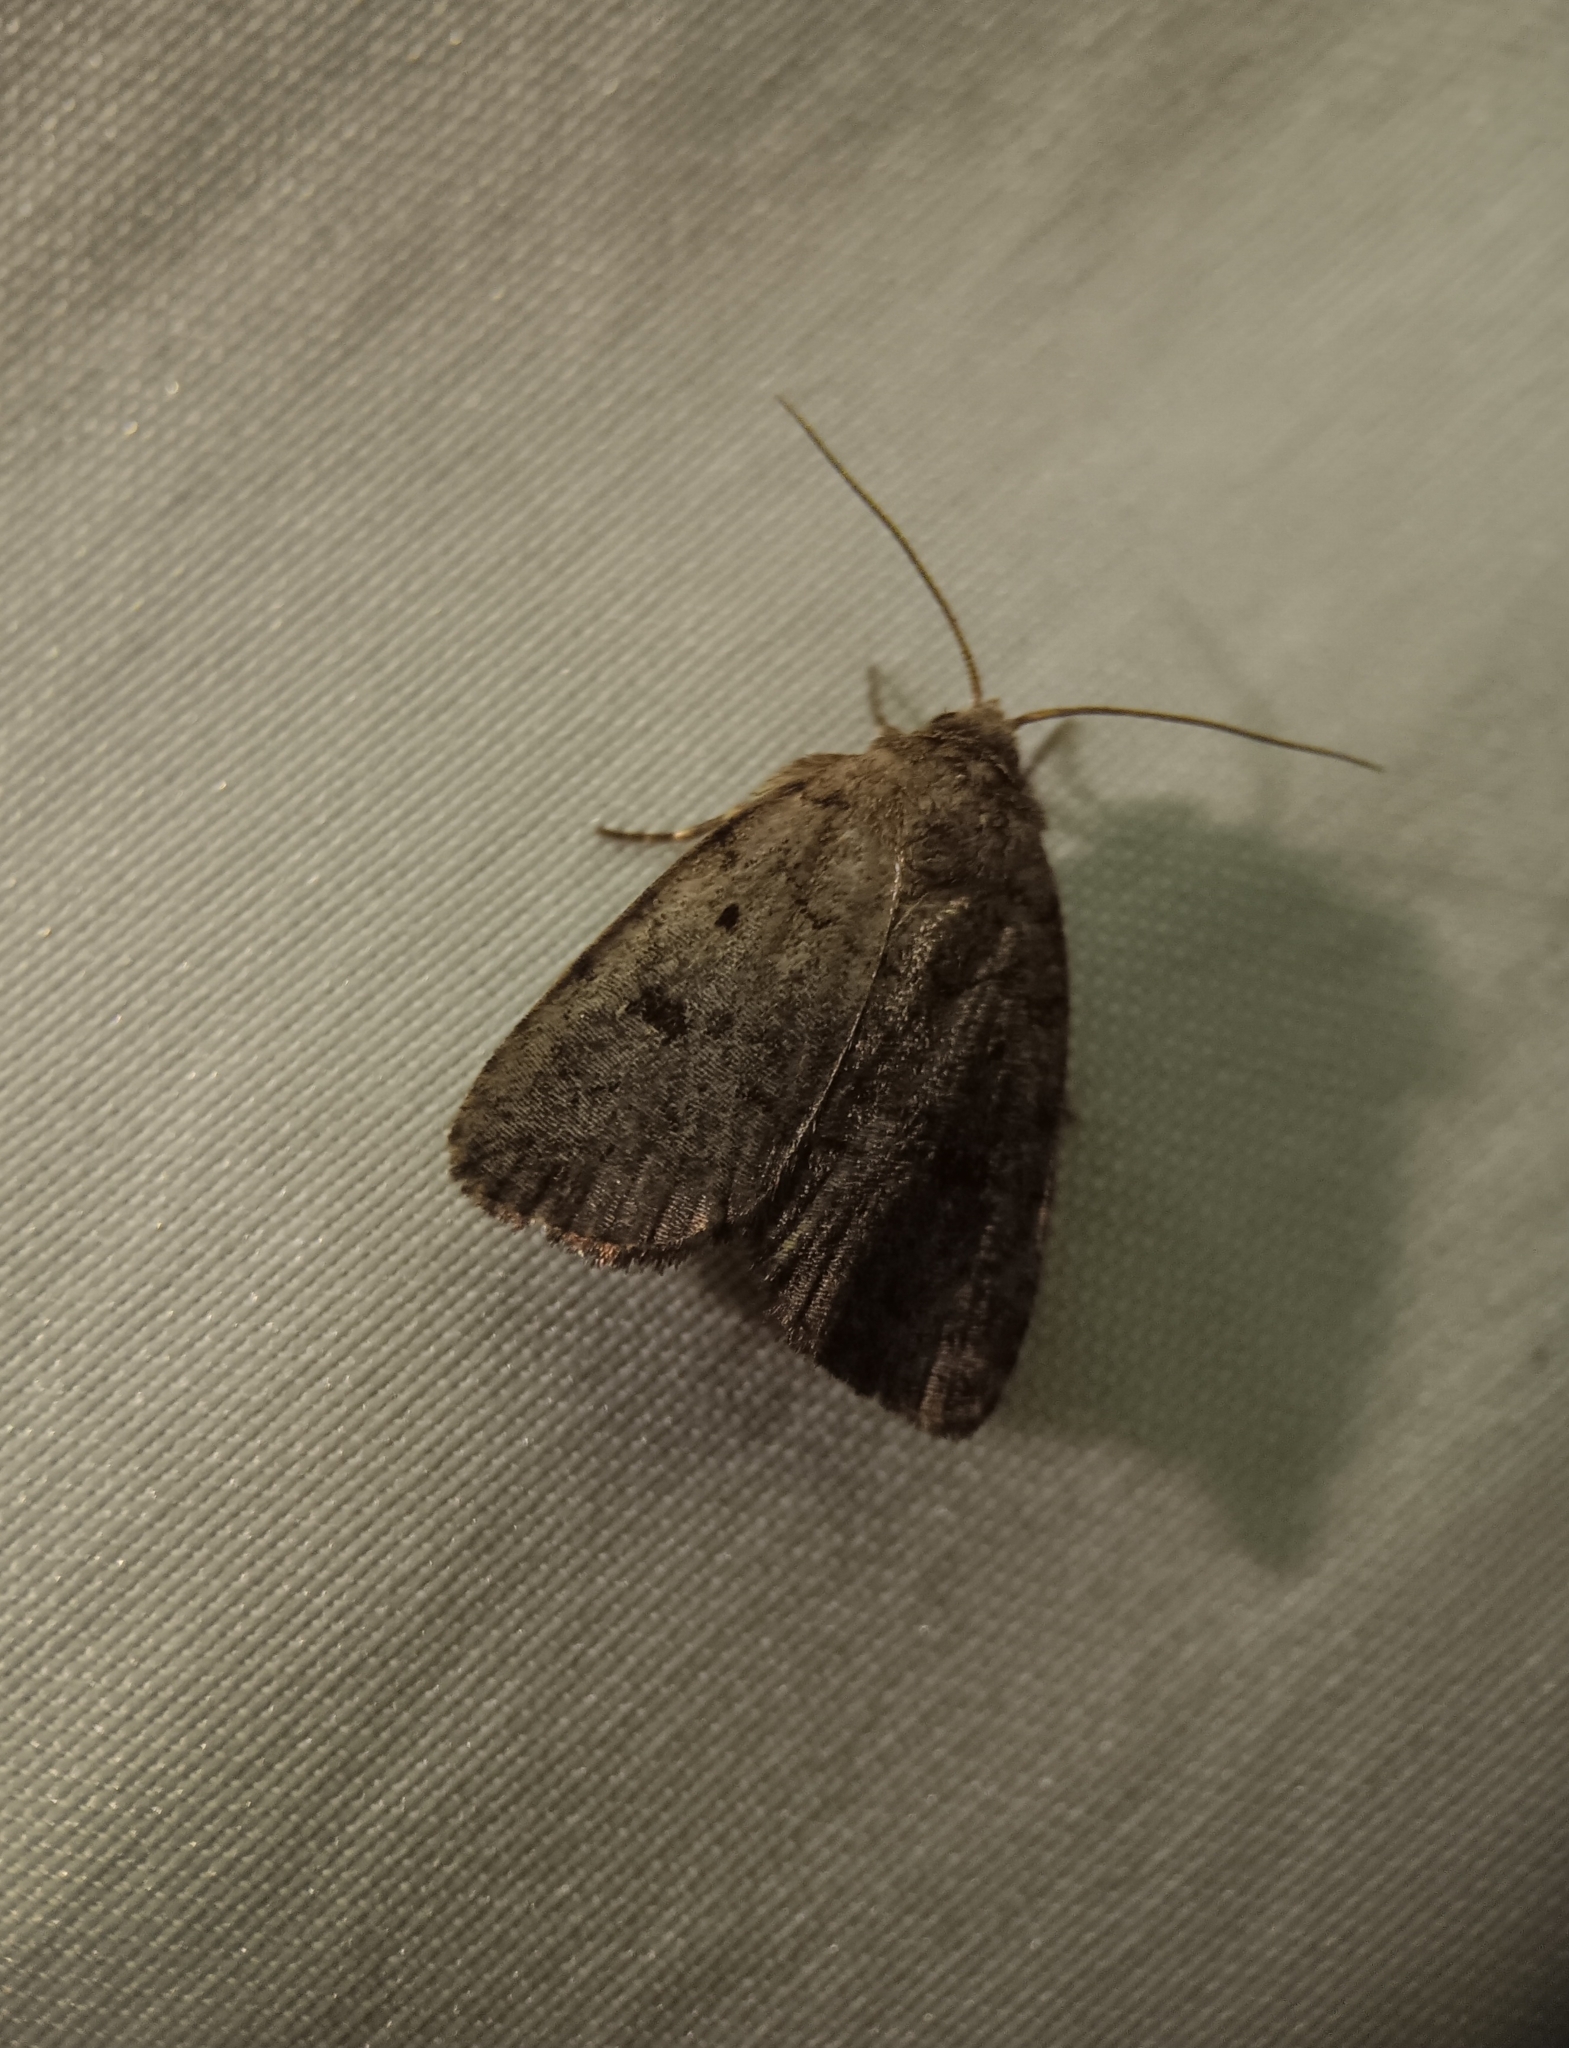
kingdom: Animalia
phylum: Arthropoda
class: Insecta
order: Lepidoptera
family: Noctuidae
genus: Athetis
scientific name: Athetis tarda
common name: Slowpoke moth
